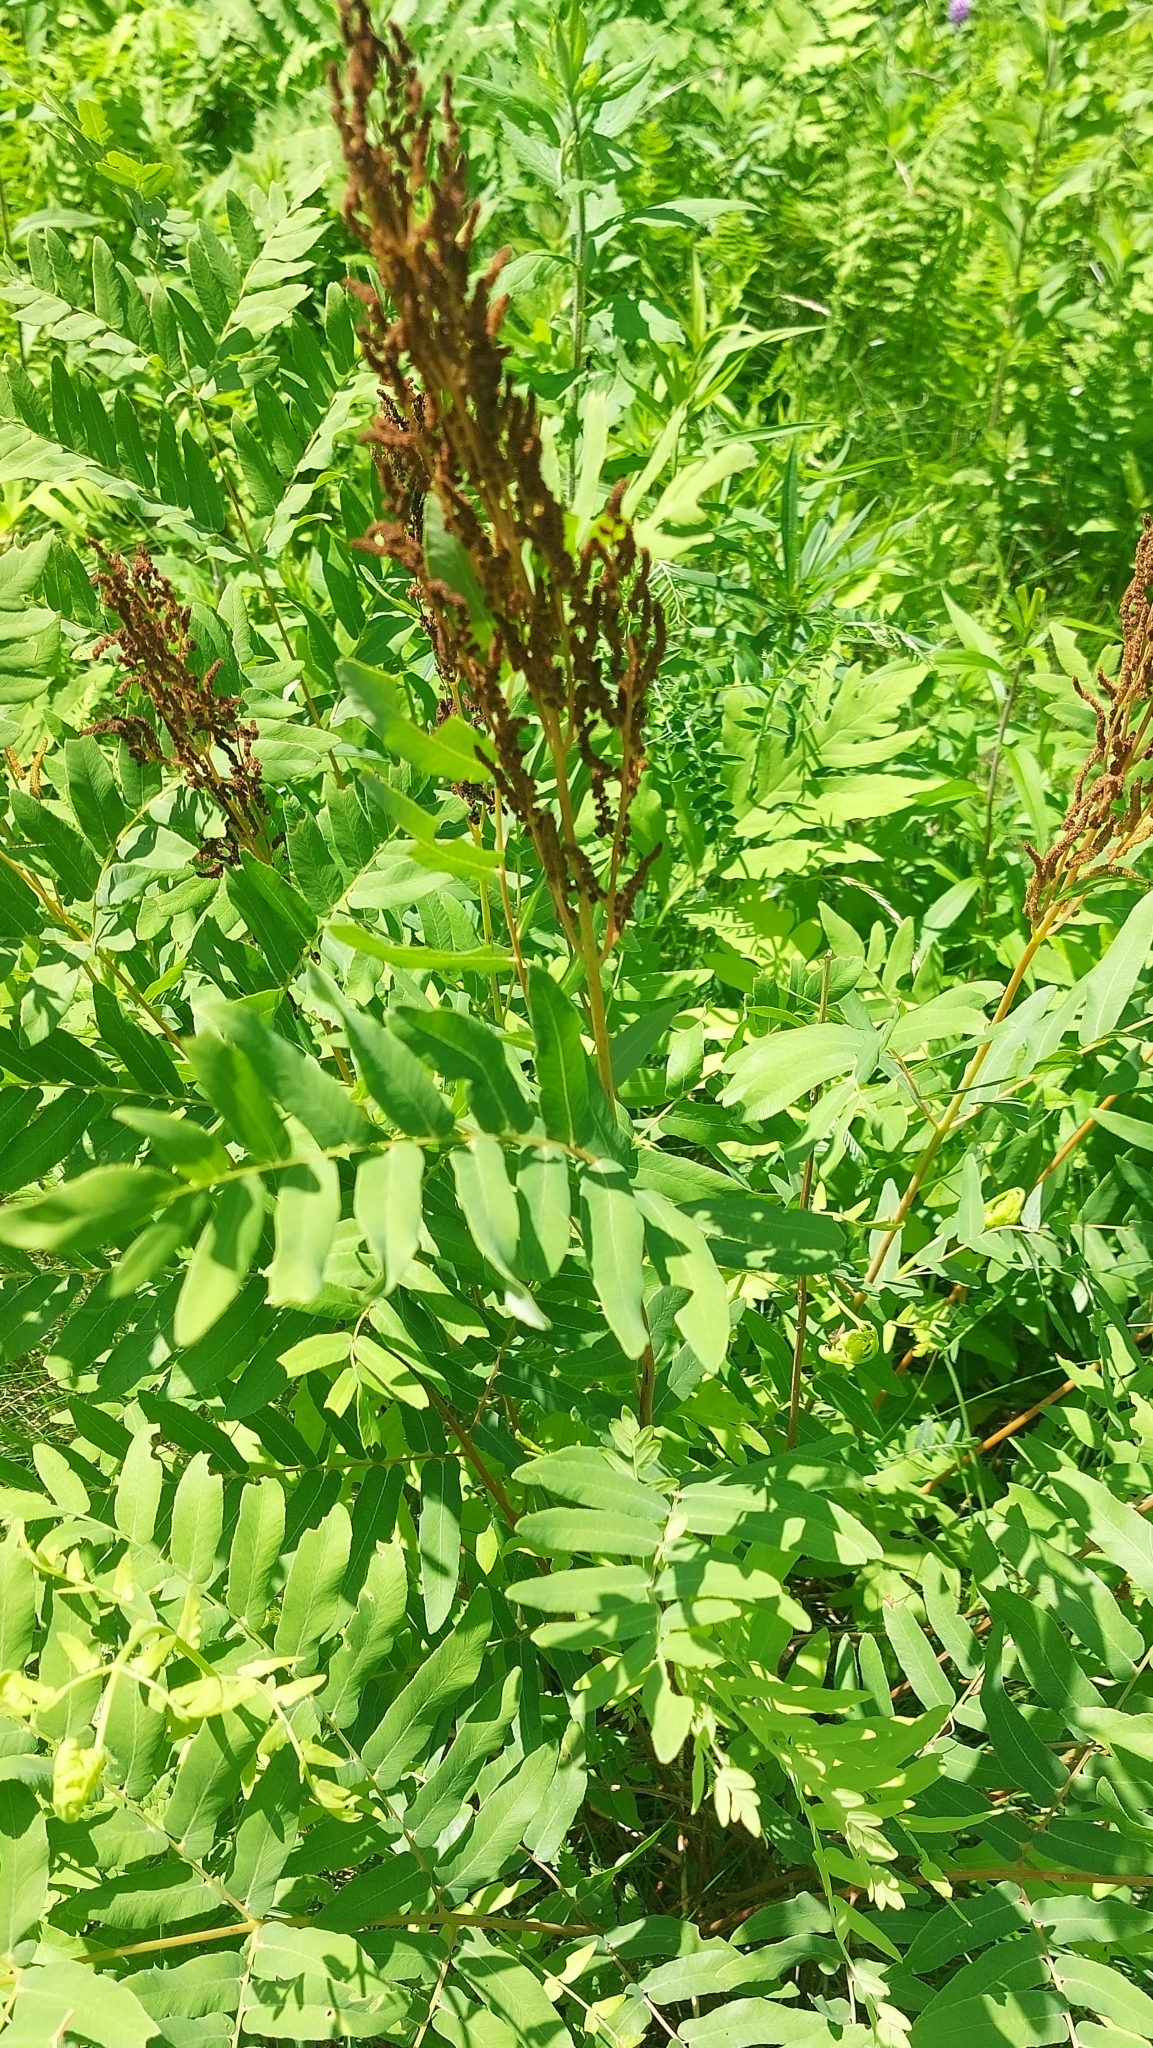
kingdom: Plantae
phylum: Tracheophyta
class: Polypodiopsida
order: Osmundales
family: Osmundaceae
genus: Osmunda
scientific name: Osmunda spectabilis
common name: American royal fern
